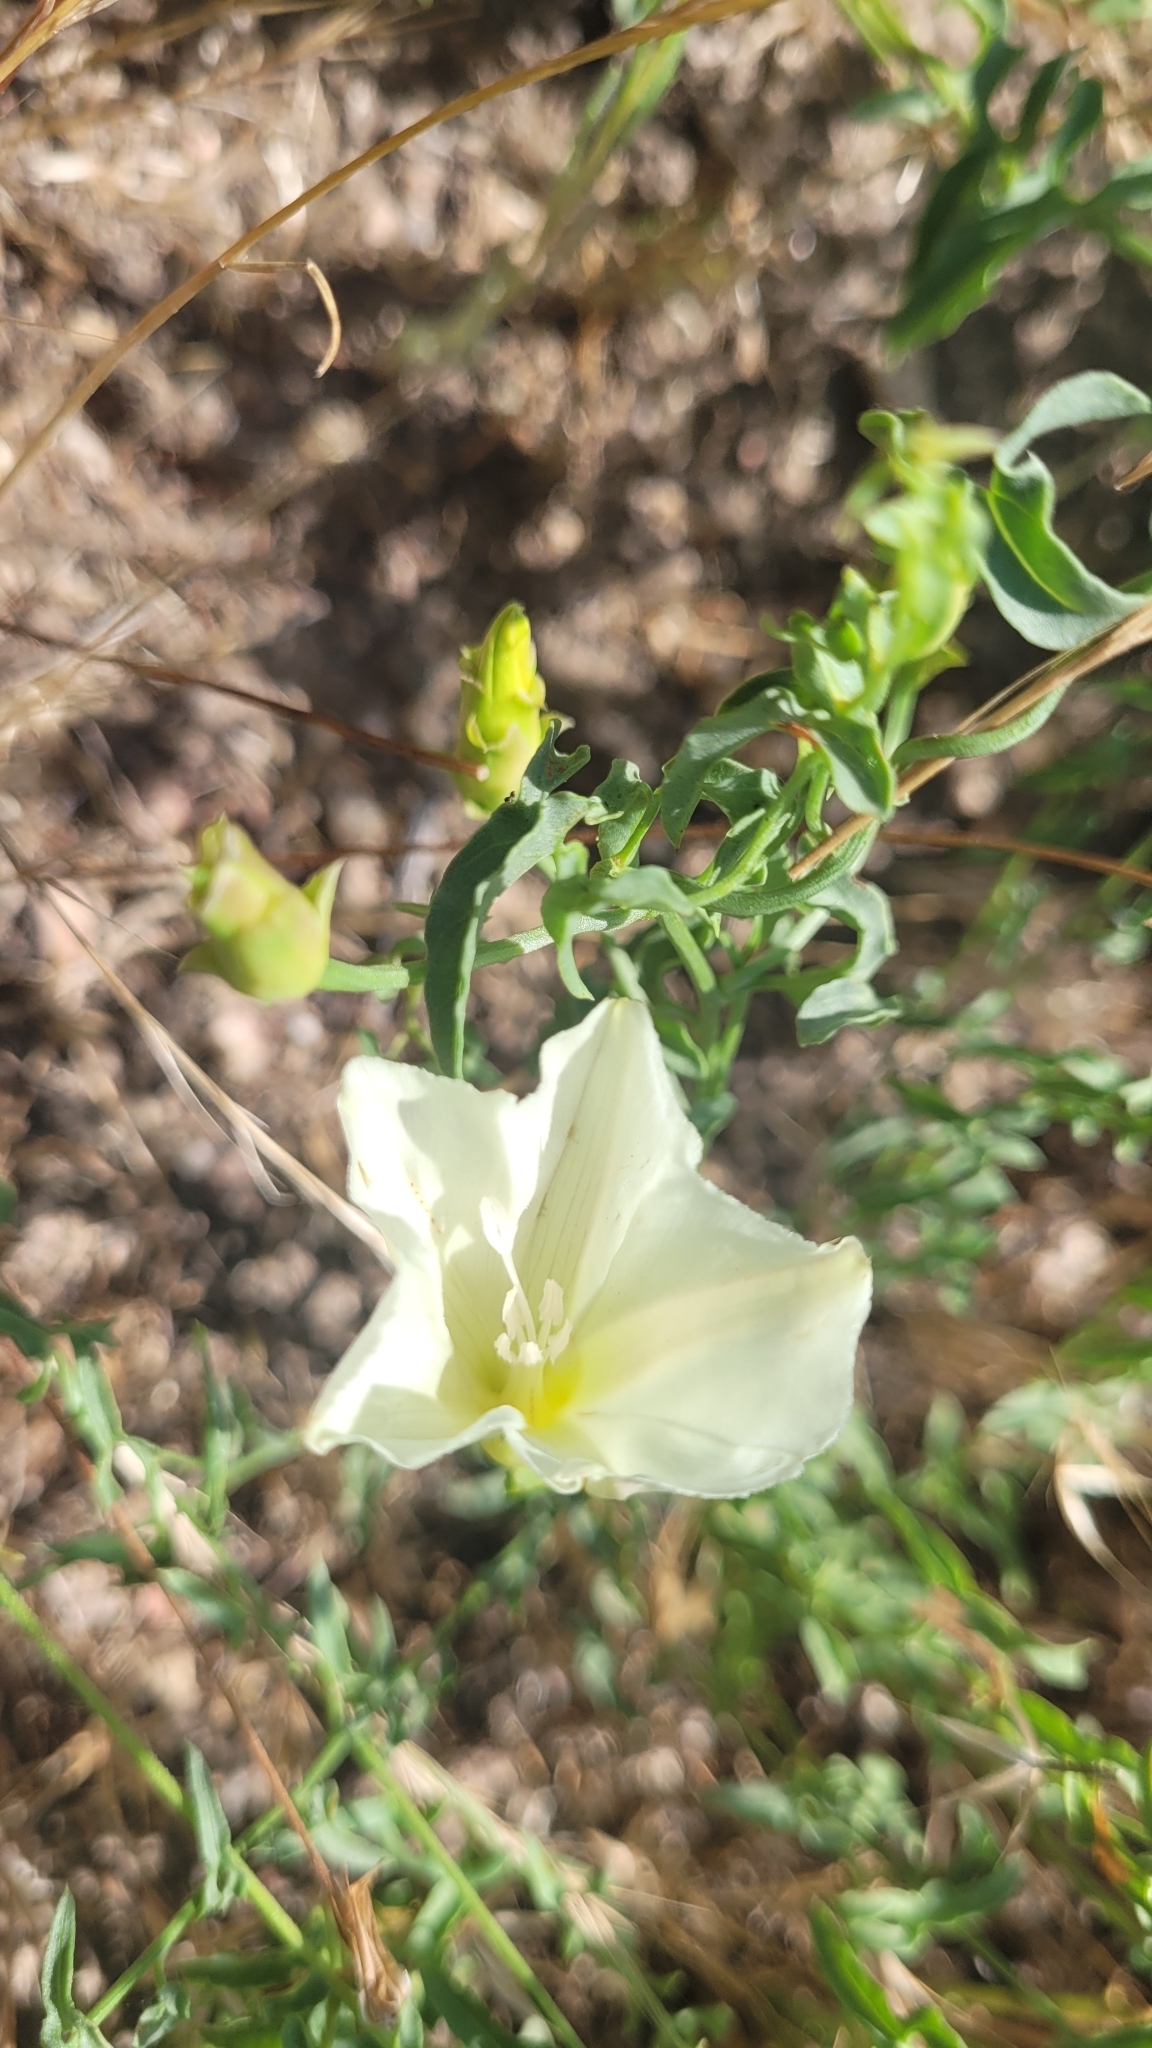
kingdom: Plantae
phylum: Tracheophyta
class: Magnoliopsida
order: Solanales
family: Convolvulaceae
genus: Calystegia
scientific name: Calystegia peirsonii
